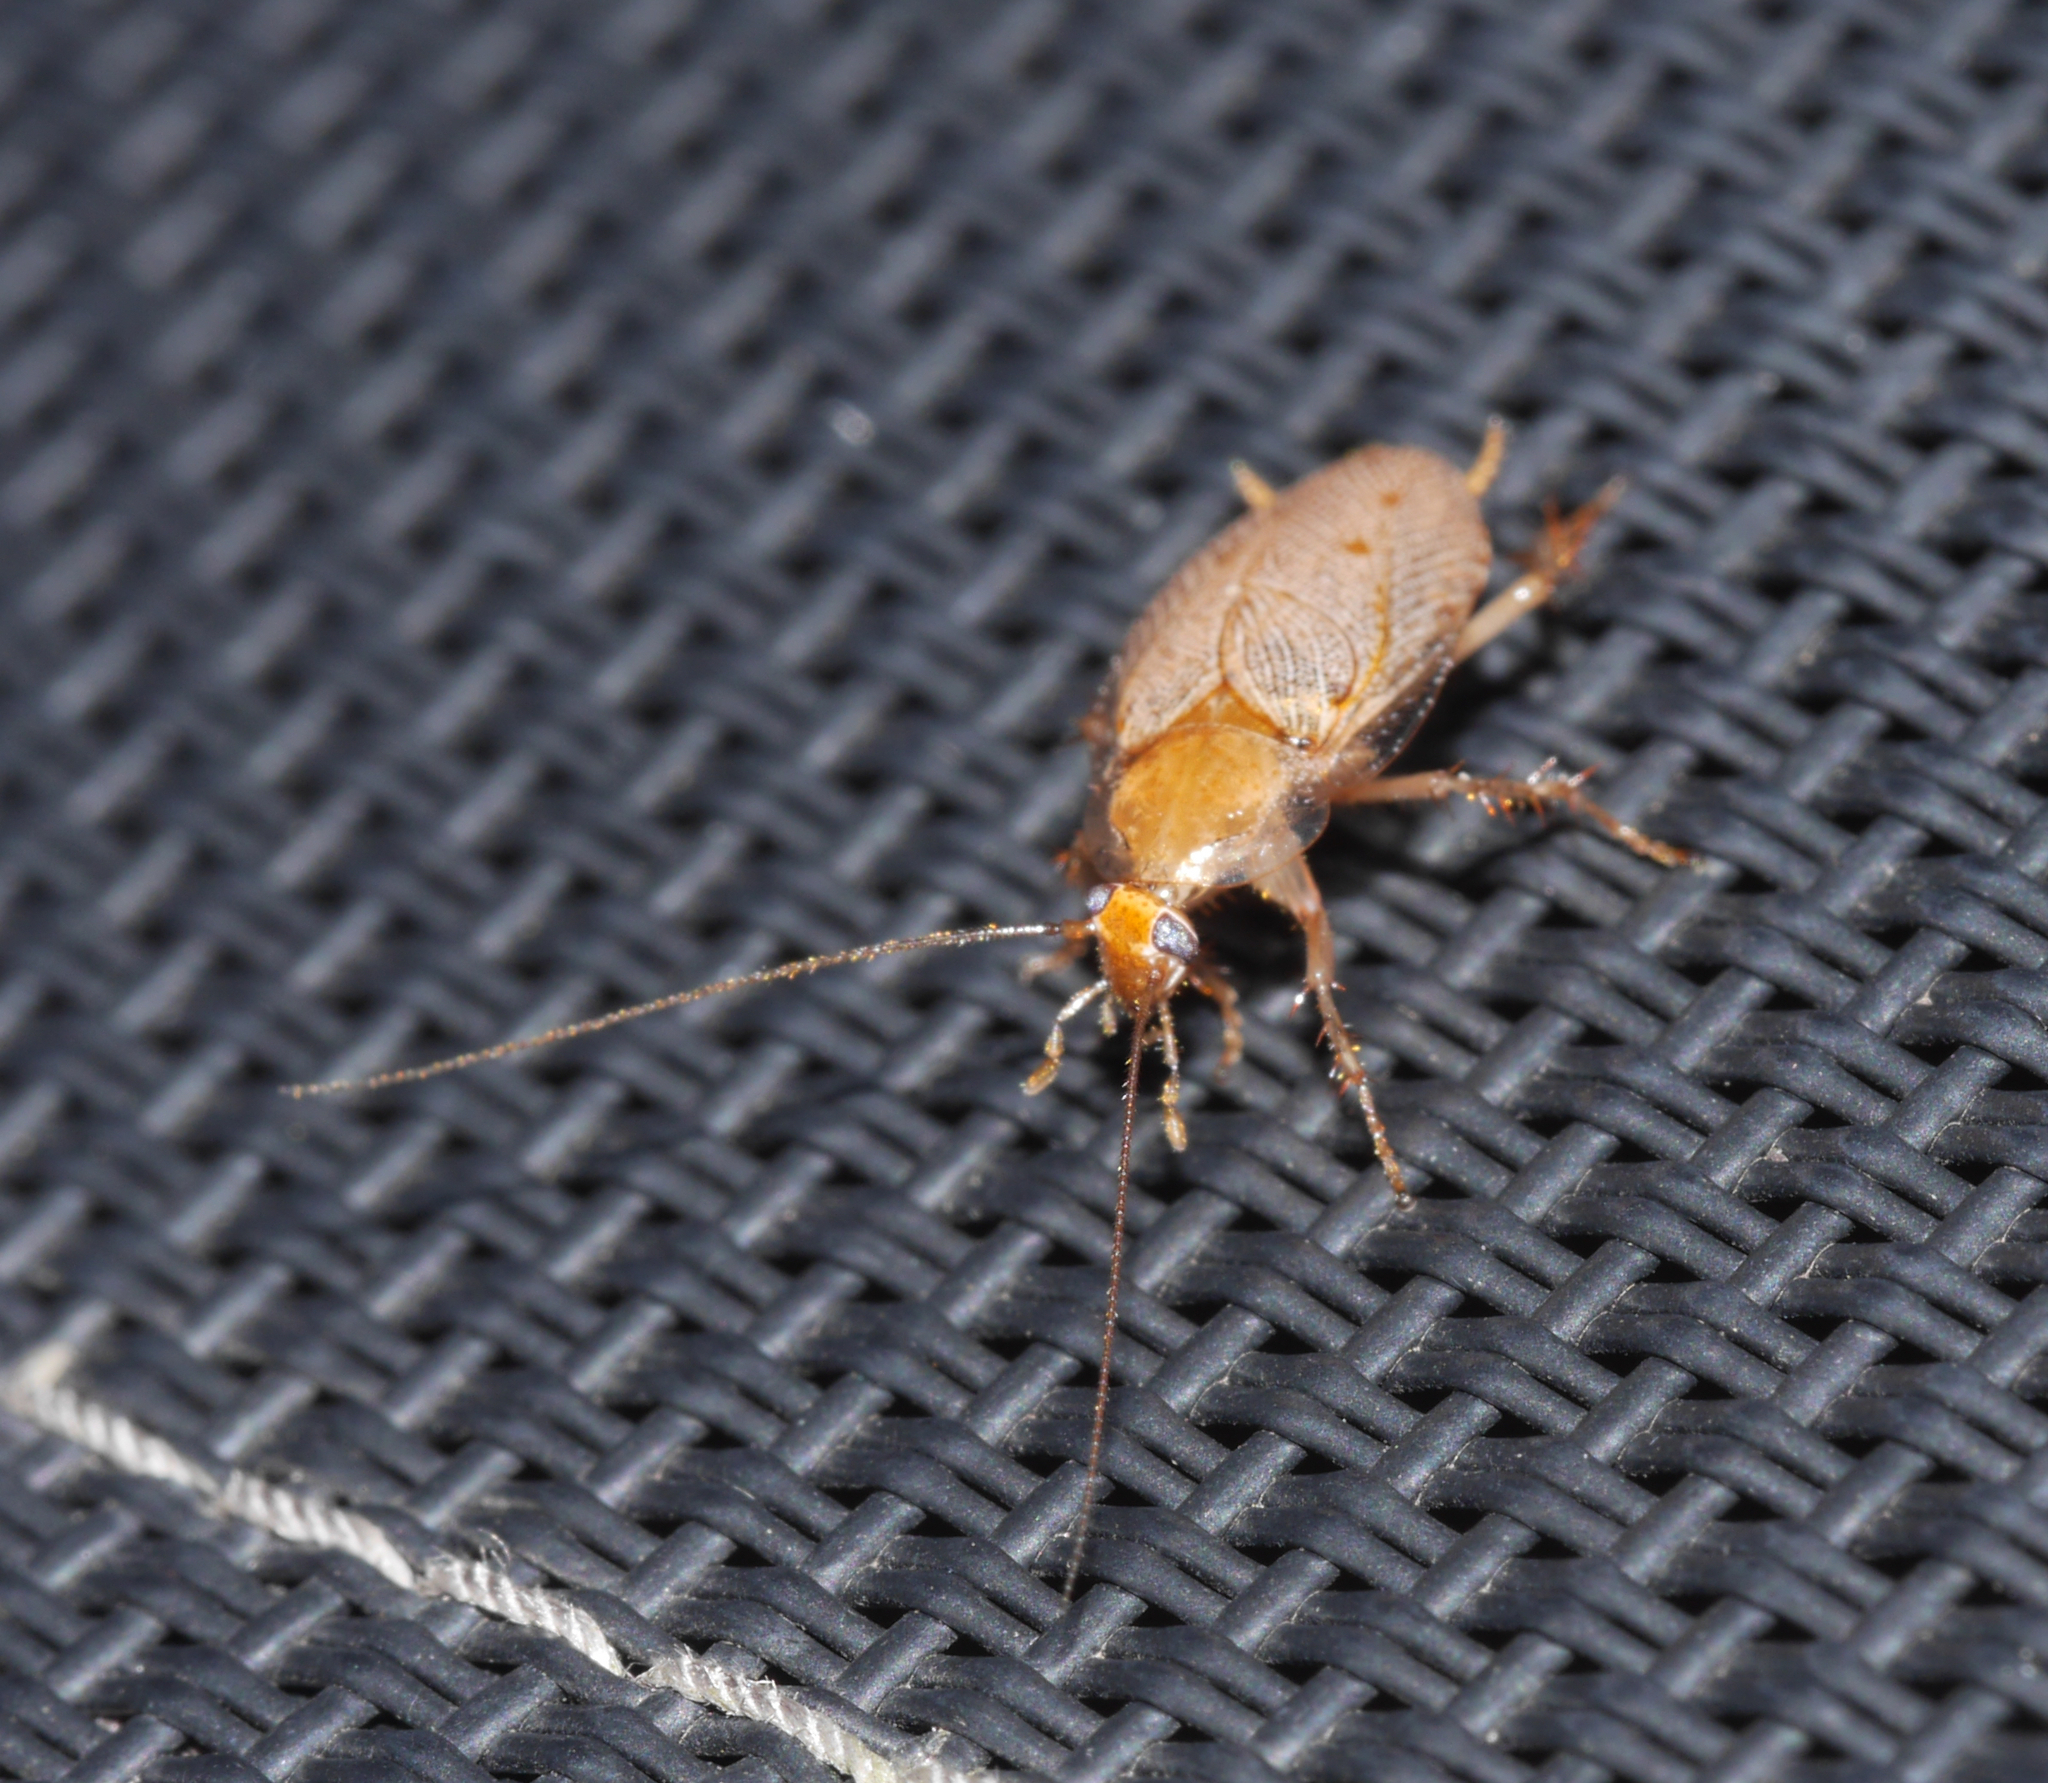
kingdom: Animalia
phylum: Arthropoda
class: Insecta
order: Blattodea
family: Ectobiidae
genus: Ectobius
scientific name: Ectobius pallidus
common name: Tawny cockroach
